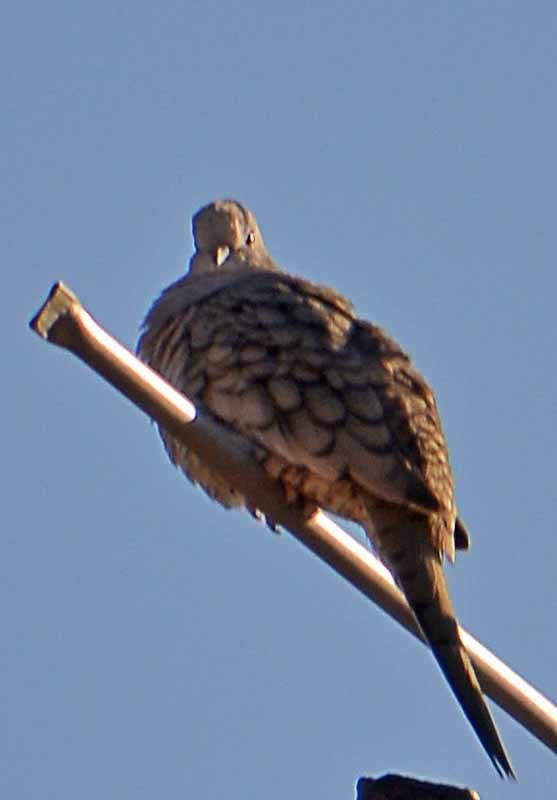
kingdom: Animalia
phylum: Chordata
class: Aves
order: Columbiformes
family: Columbidae
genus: Columbina
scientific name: Columbina inca
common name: Inca dove
